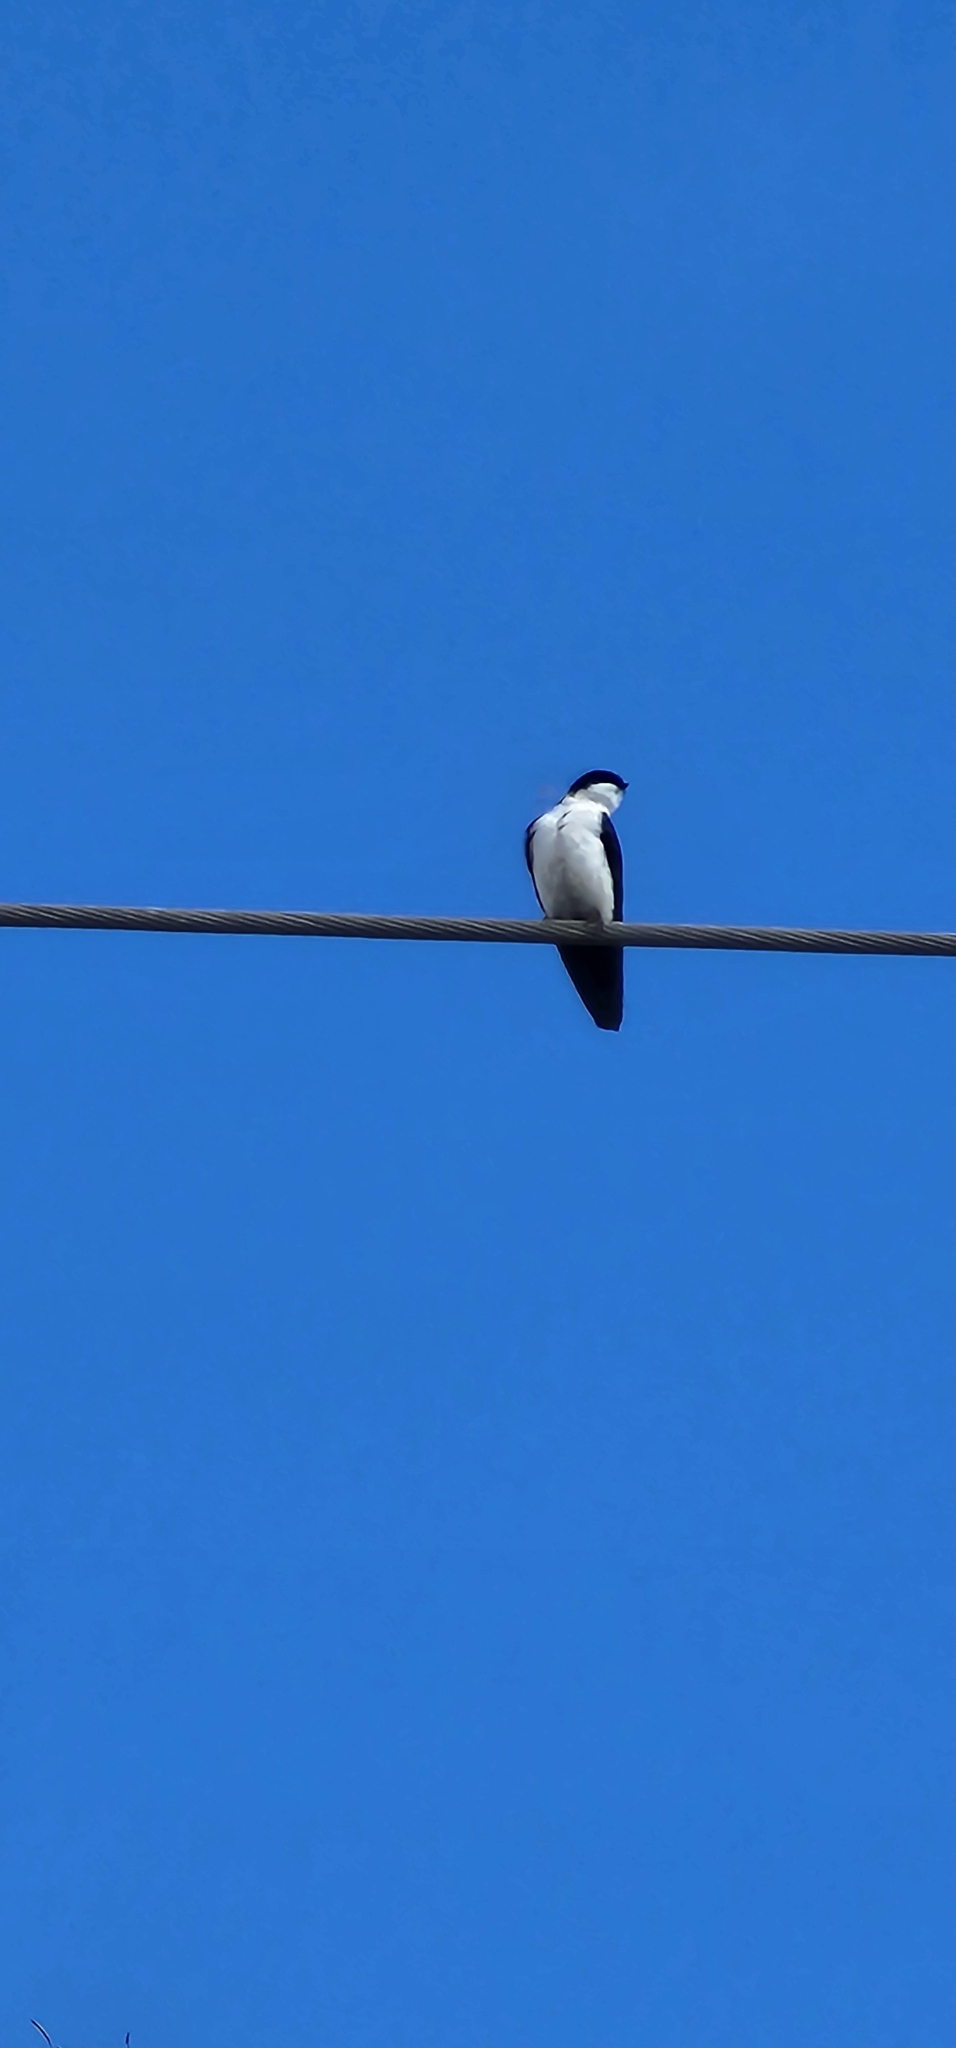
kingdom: Animalia
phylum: Chordata
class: Aves
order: Passeriformes
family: Hirundinidae
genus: Notiochelidon
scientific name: Notiochelidon cyanoleuca
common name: Blue-and-white swallow
